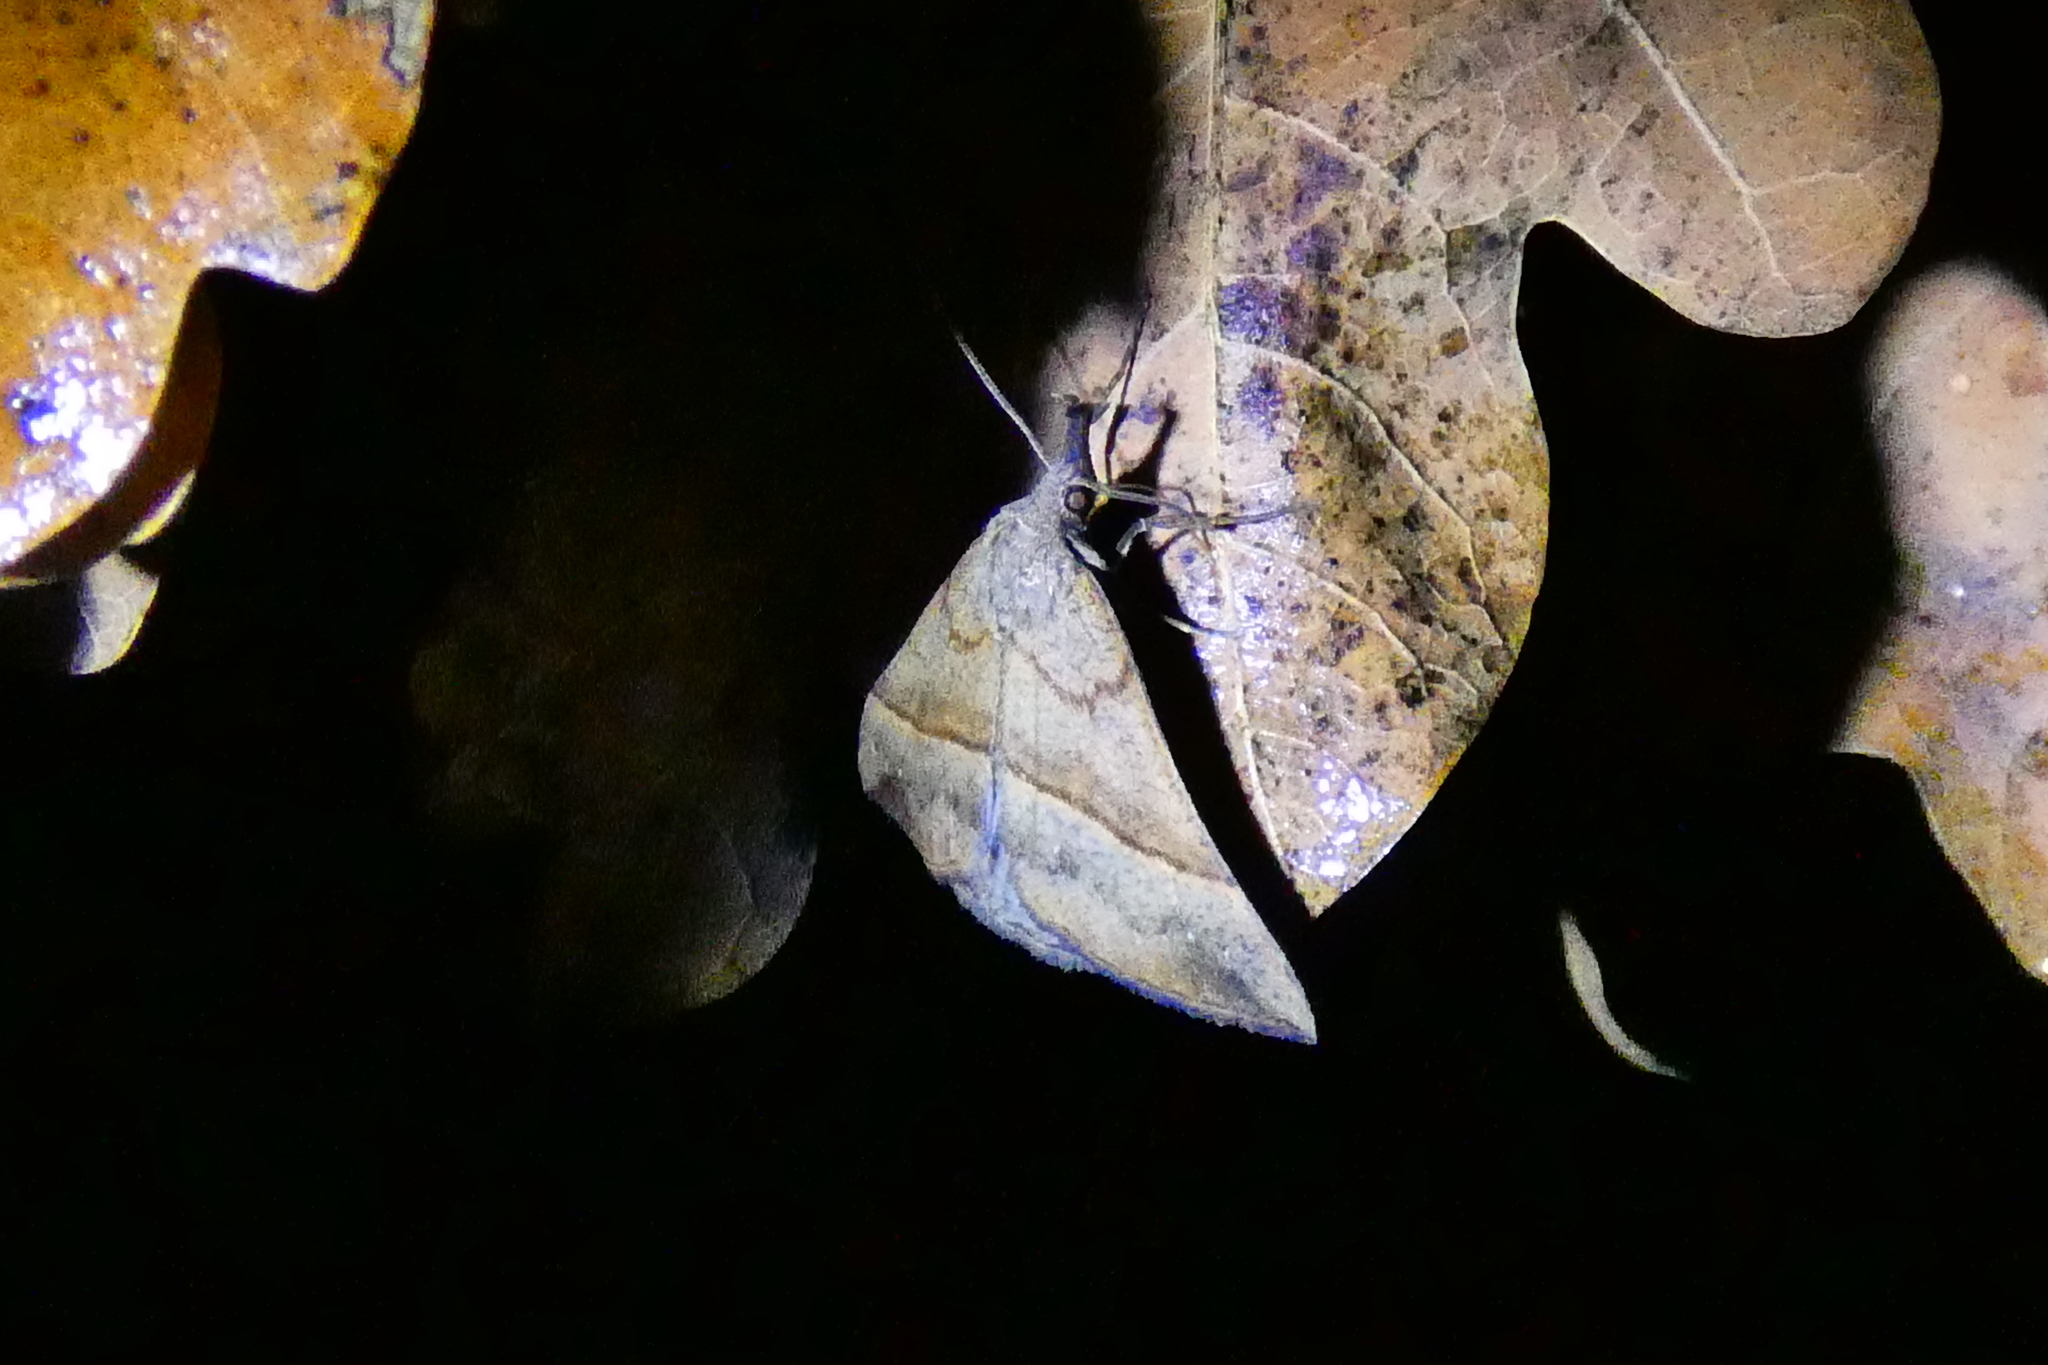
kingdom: Animalia
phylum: Arthropoda
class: Insecta
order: Lepidoptera
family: Erebidae
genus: Hypena
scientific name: Hypena proboscidalis
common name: Snout
